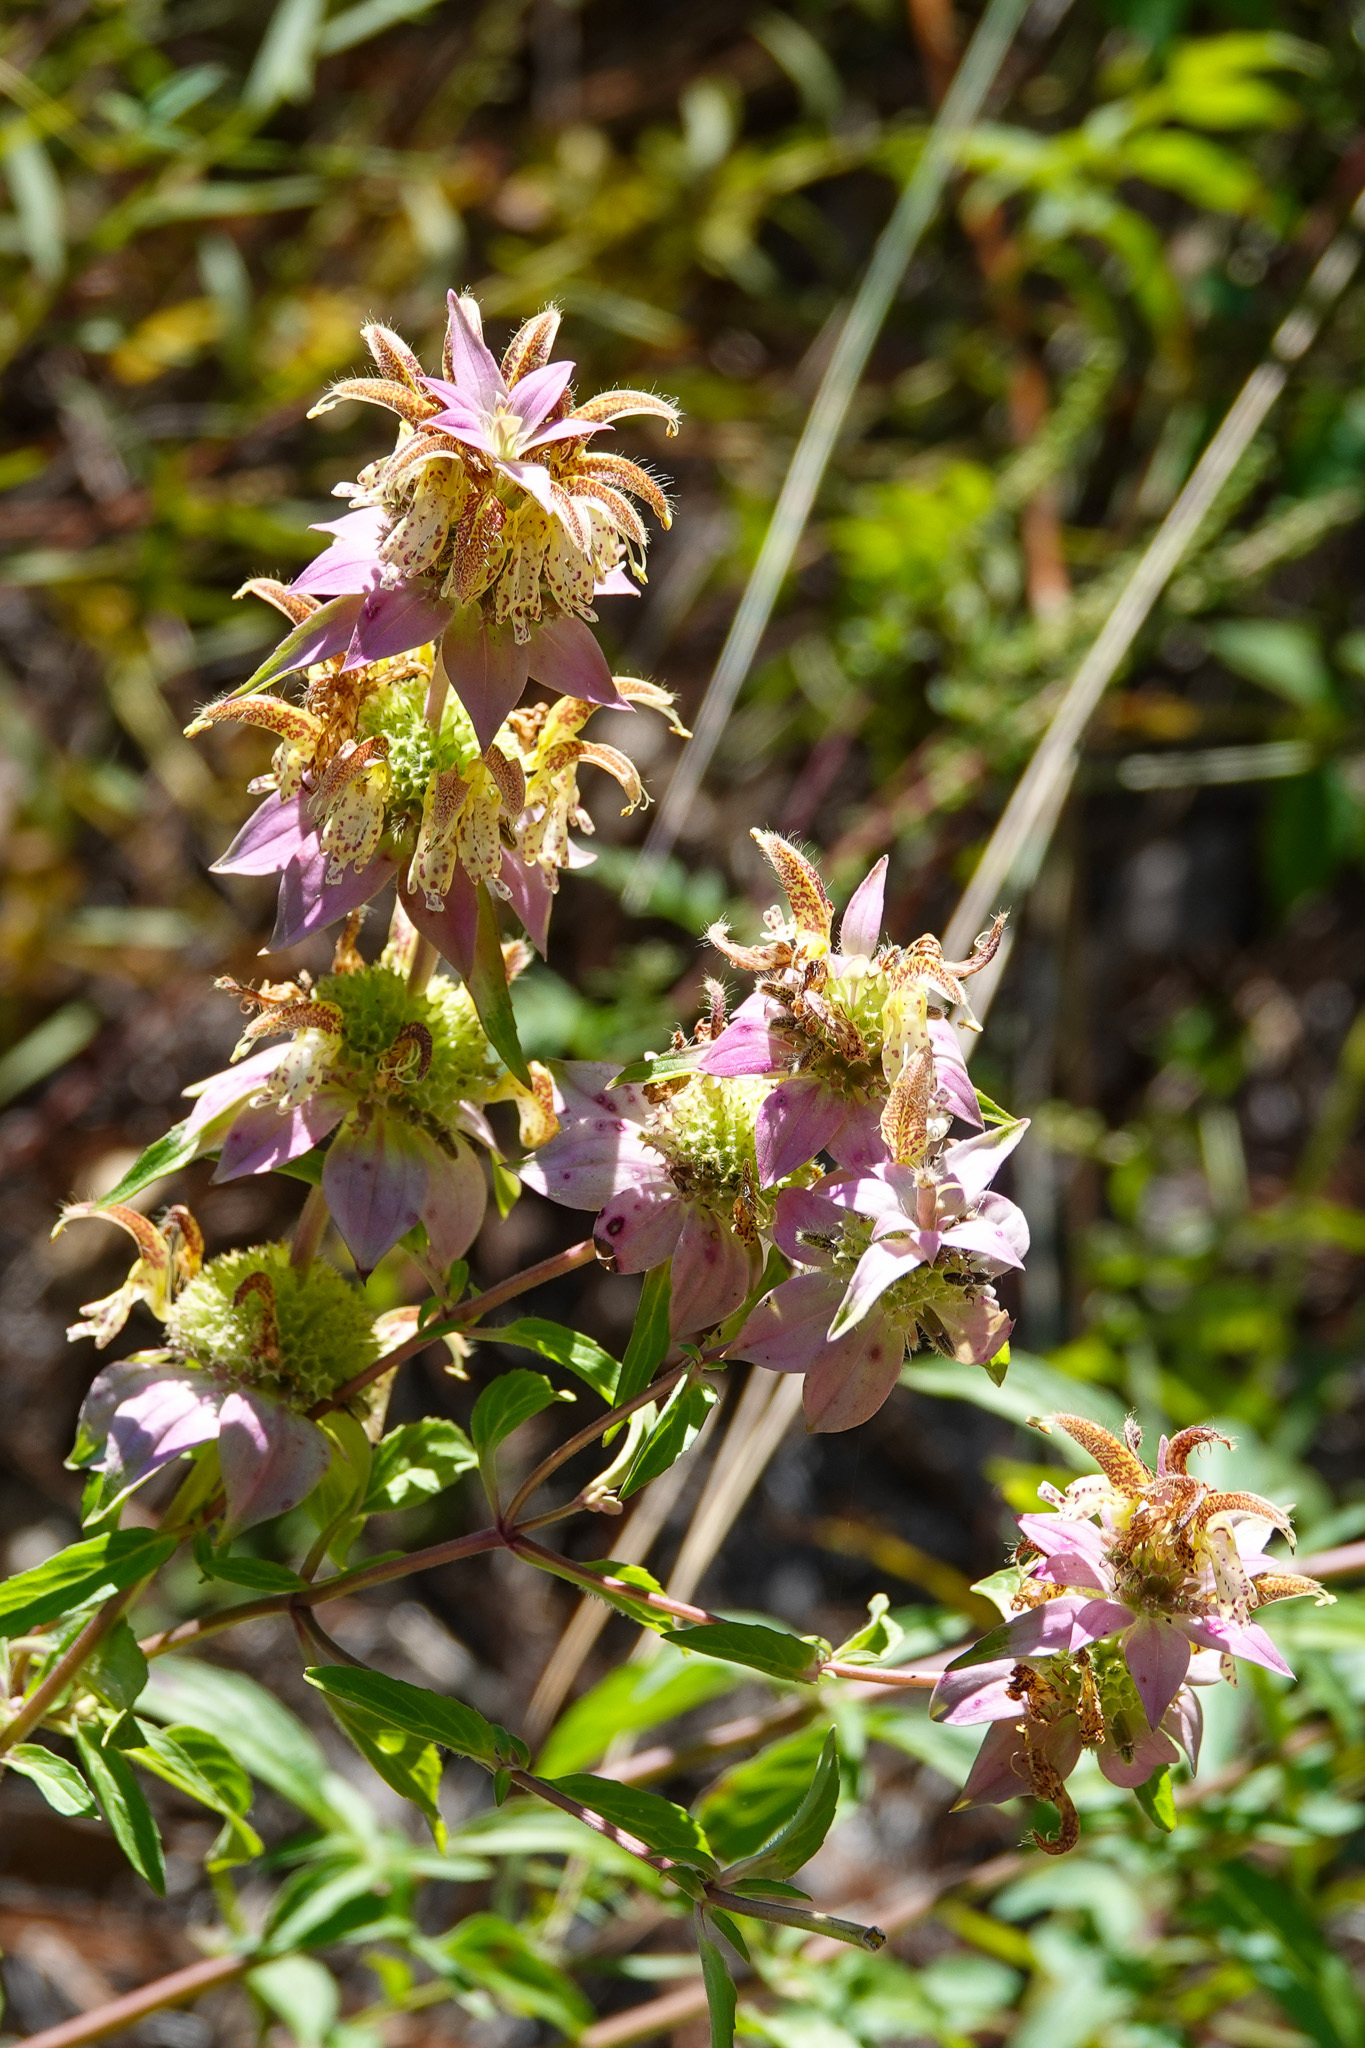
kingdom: Plantae
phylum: Tracheophyta
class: Magnoliopsida
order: Lamiales
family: Lamiaceae
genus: Monarda
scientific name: Monarda punctata
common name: Dotted monarda
